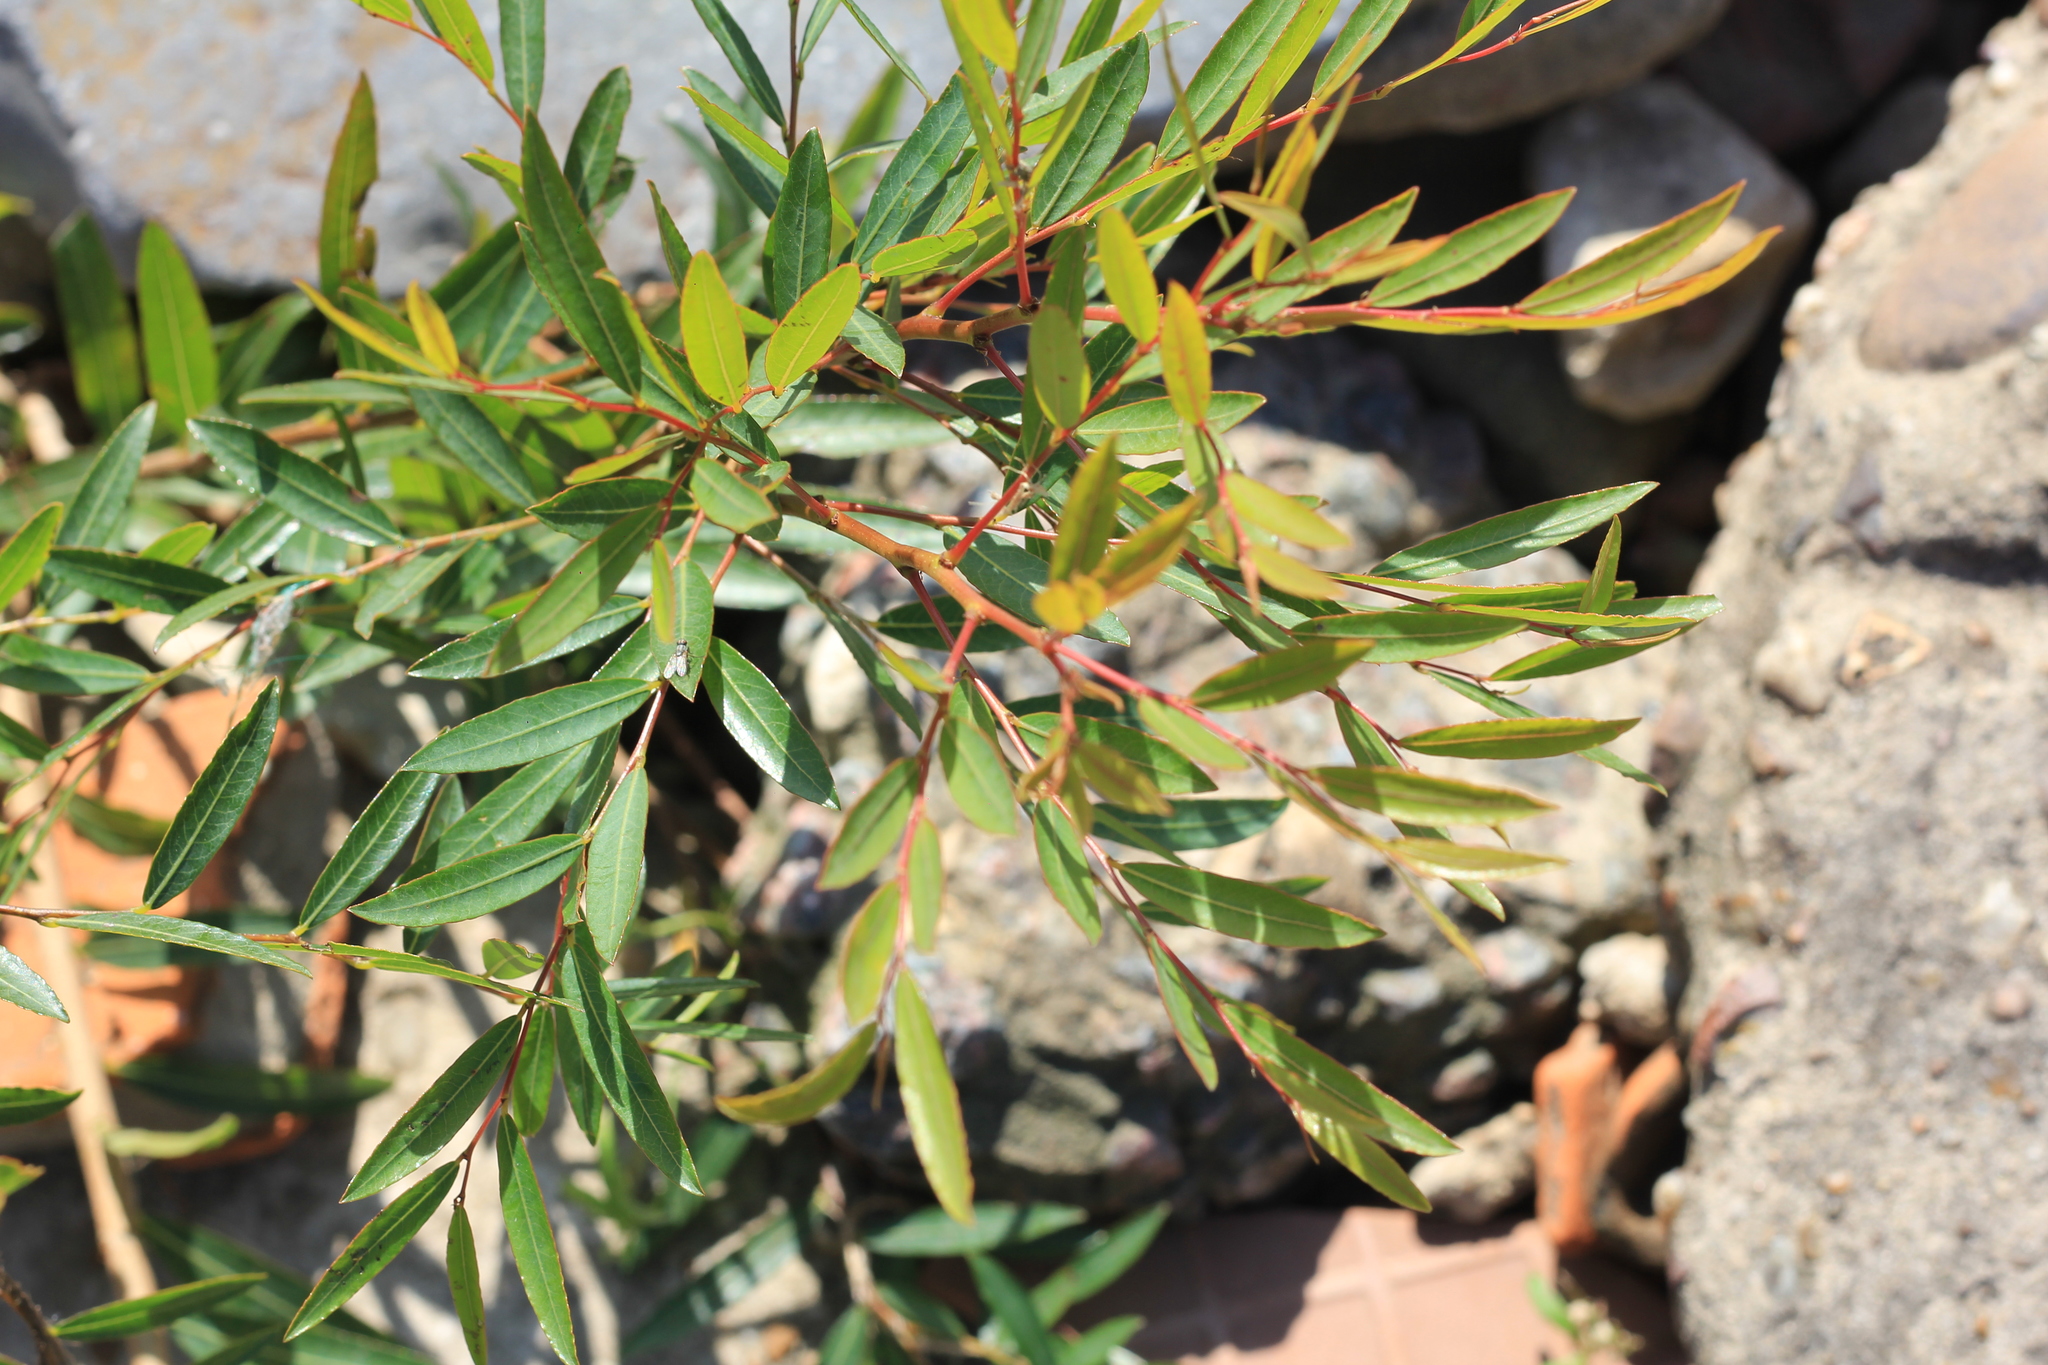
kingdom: Plantae
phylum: Tracheophyta
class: Magnoliopsida
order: Malpighiales
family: Phyllanthaceae
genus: Phyllanthus
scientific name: Phyllanthus sellowianus
